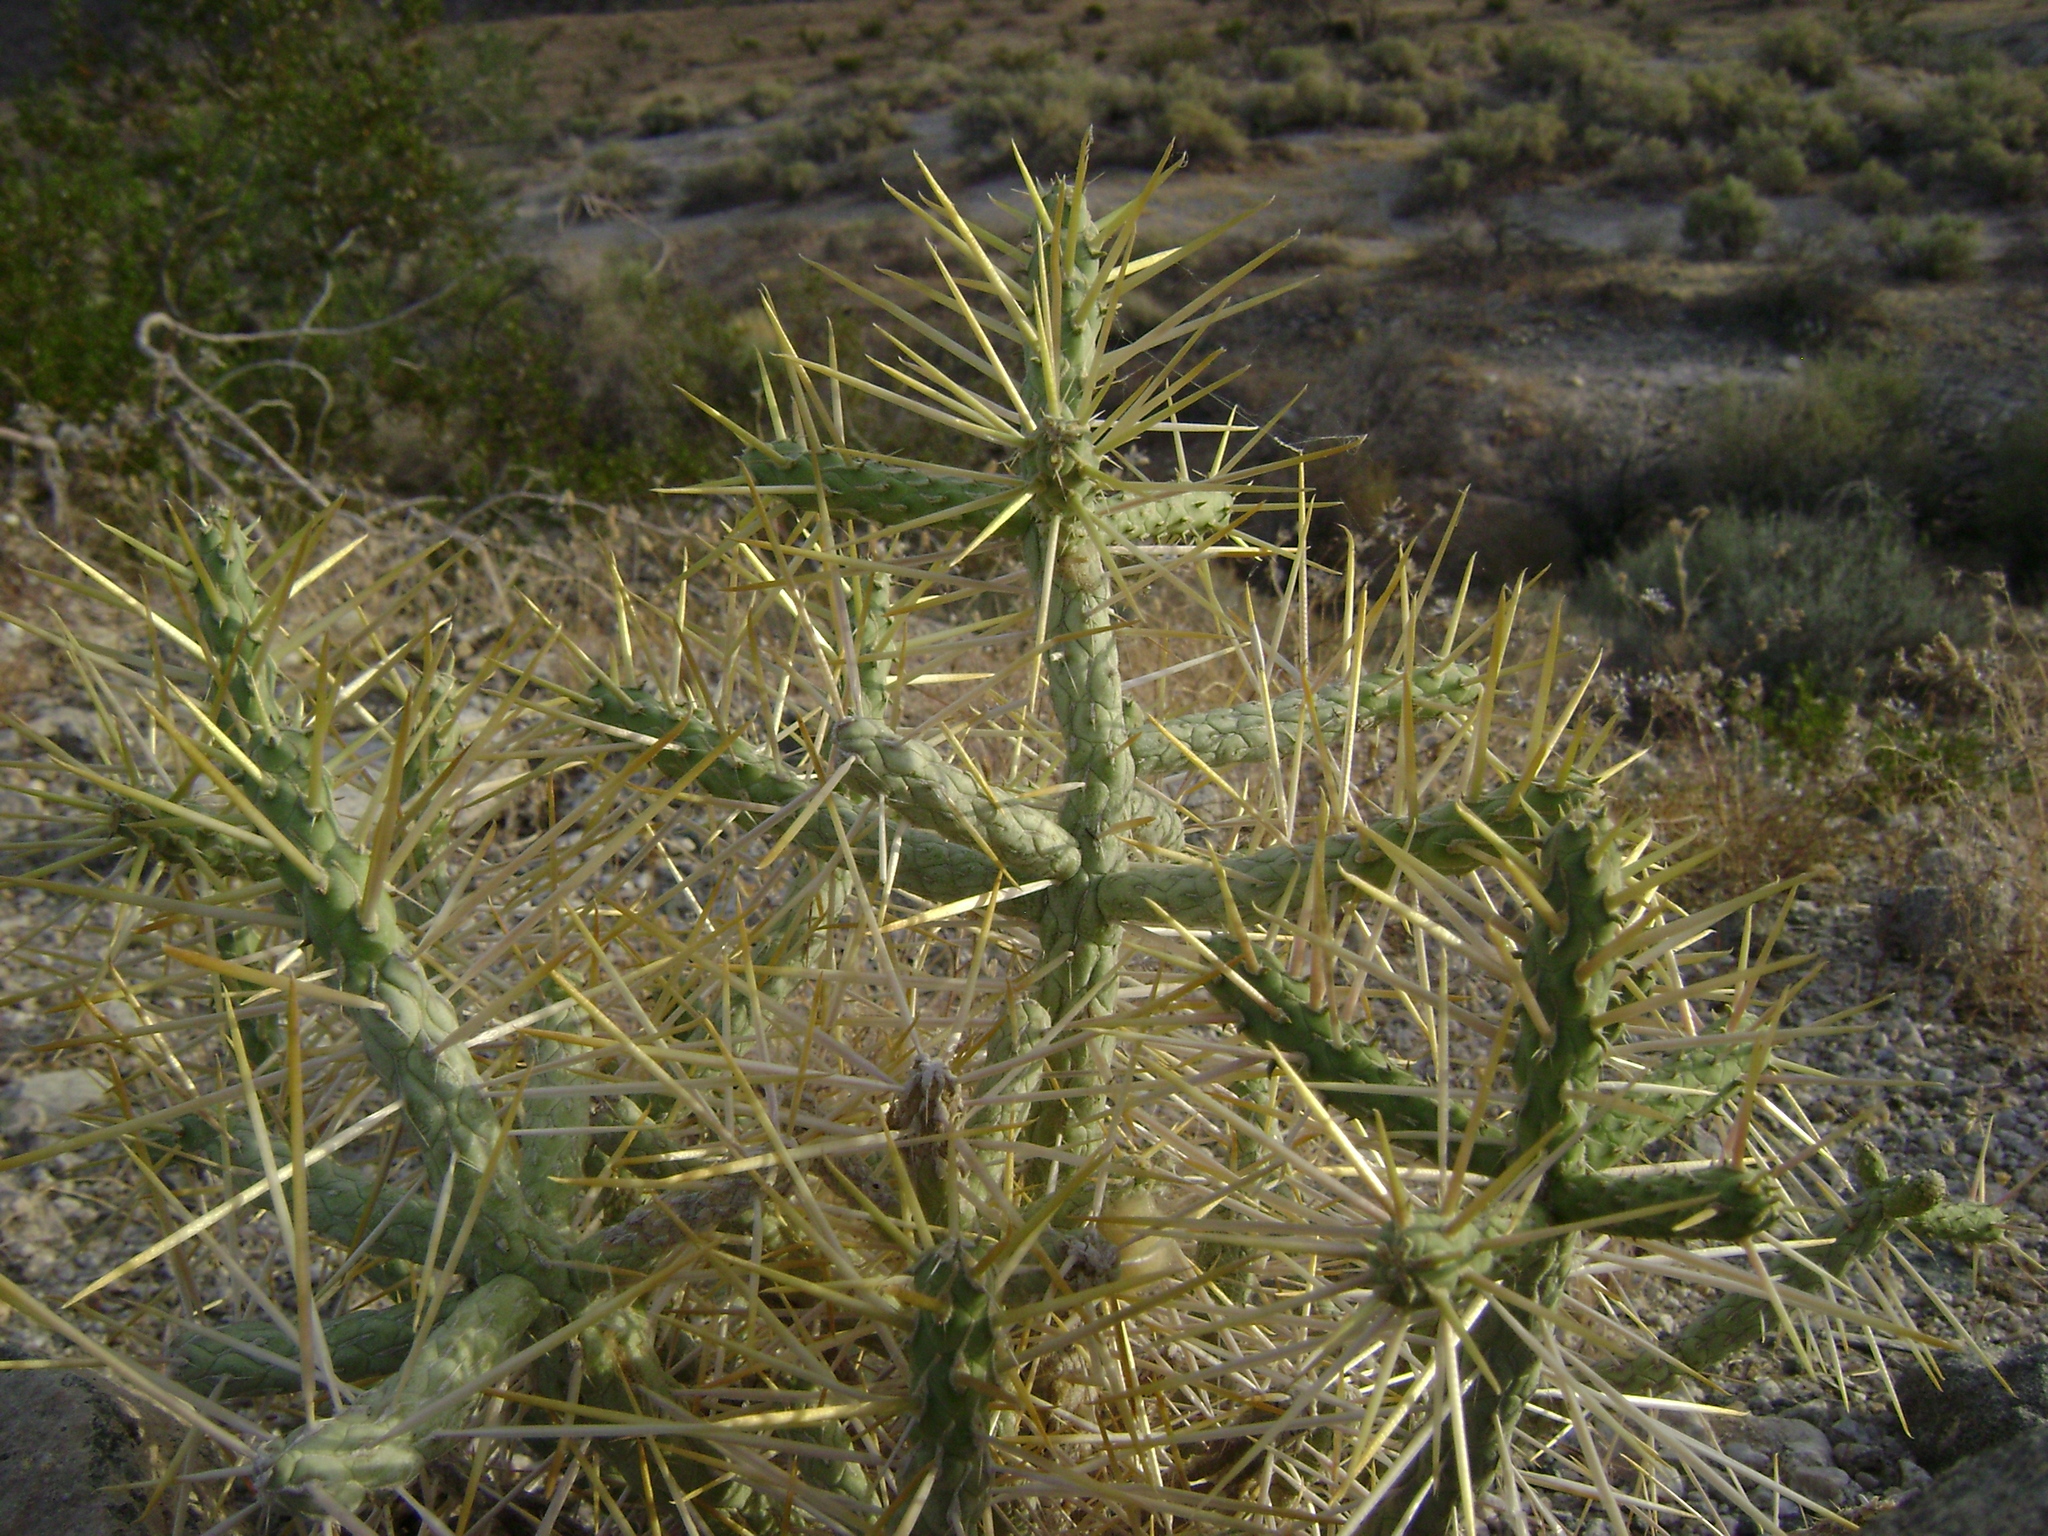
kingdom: Plantae
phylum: Tracheophyta
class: Magnoliopsida
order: Caryophyllales
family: Cactaceae
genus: Cylindropuntia
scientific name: Cylindropuntia ramosissima
